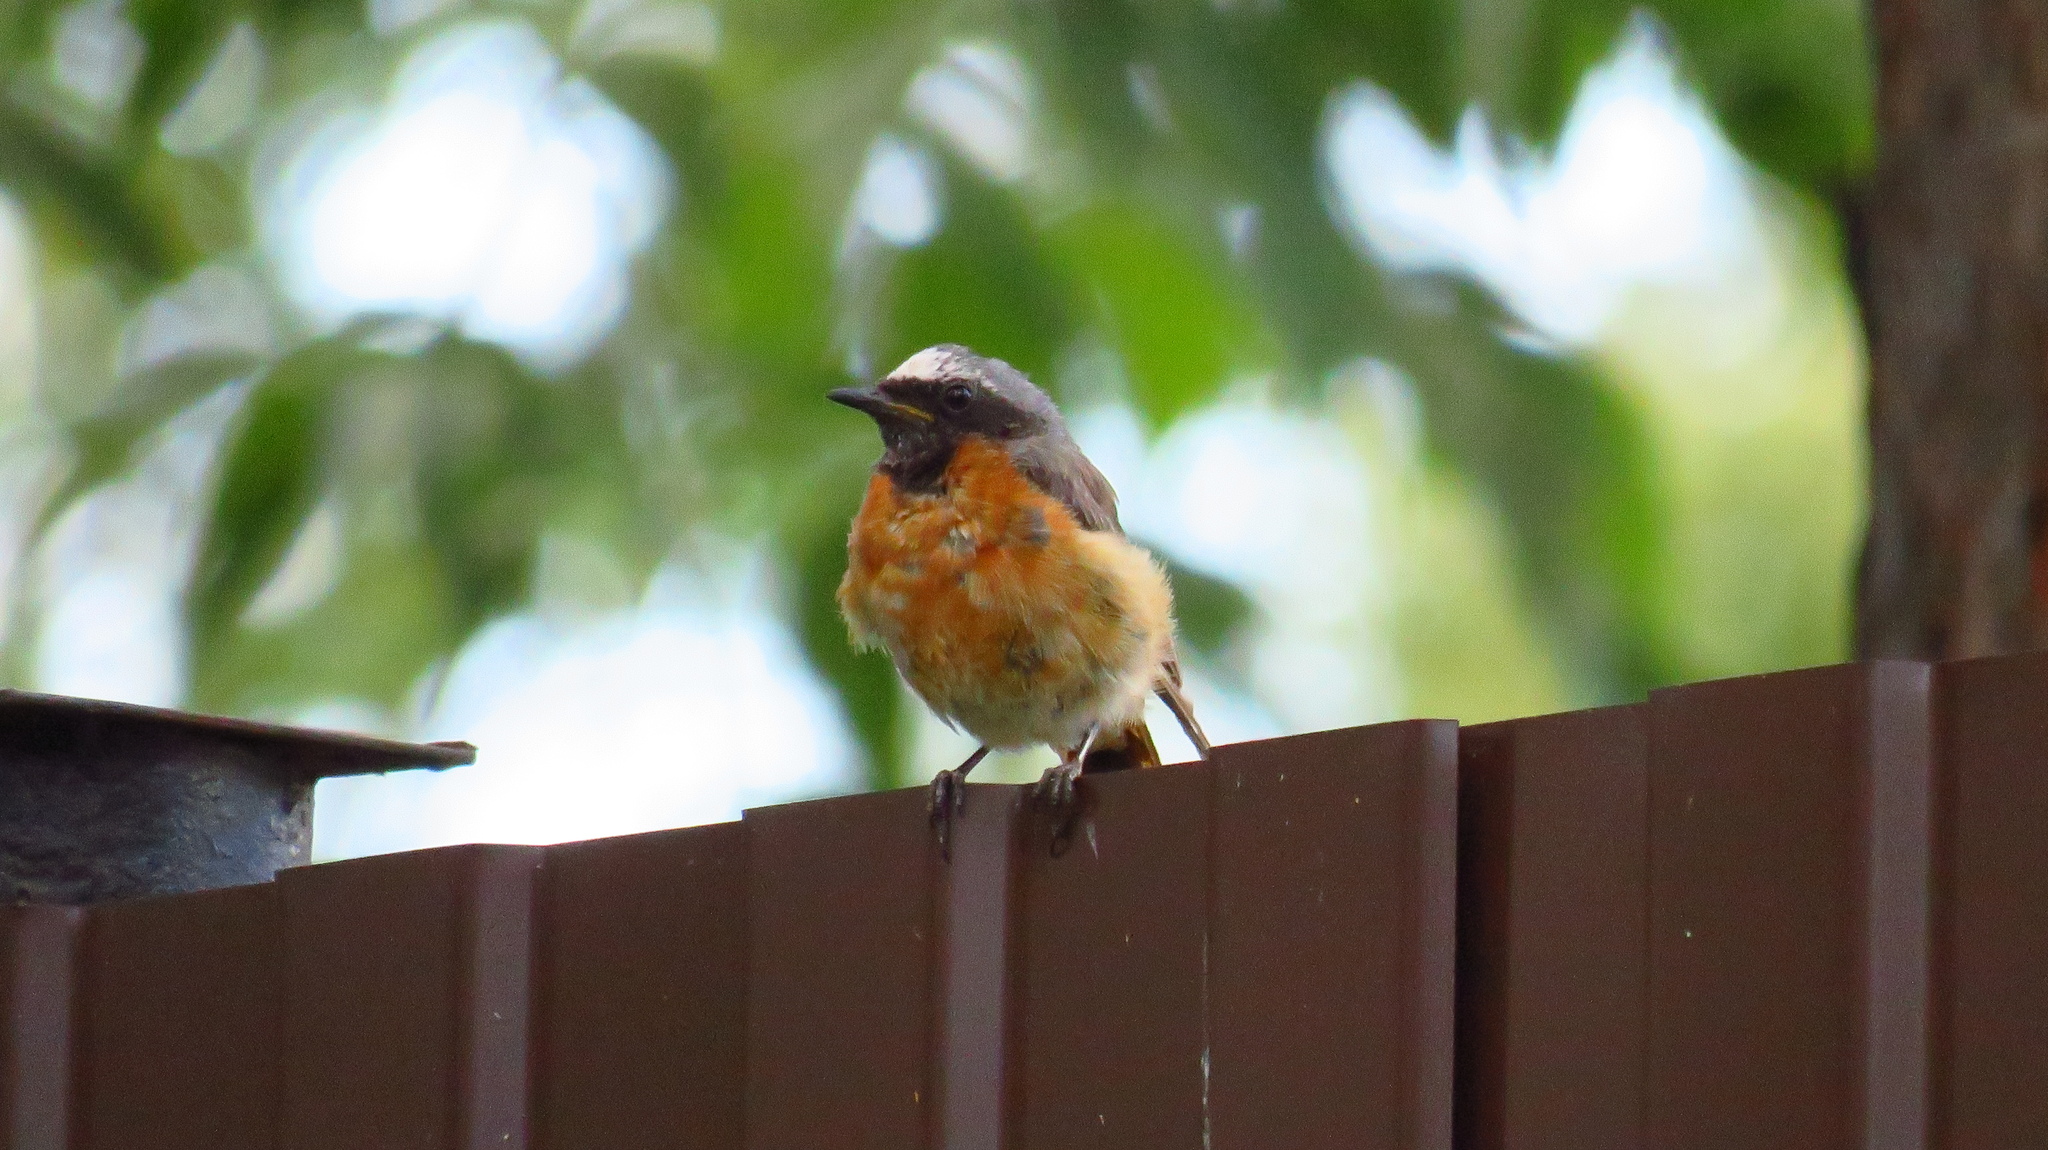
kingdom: Animalia
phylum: Chordata
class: Aves
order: Passeriformes
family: Muscicapidae
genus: Phoenicurus
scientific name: Phoenicurus phoenicurus
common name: Common redstart
